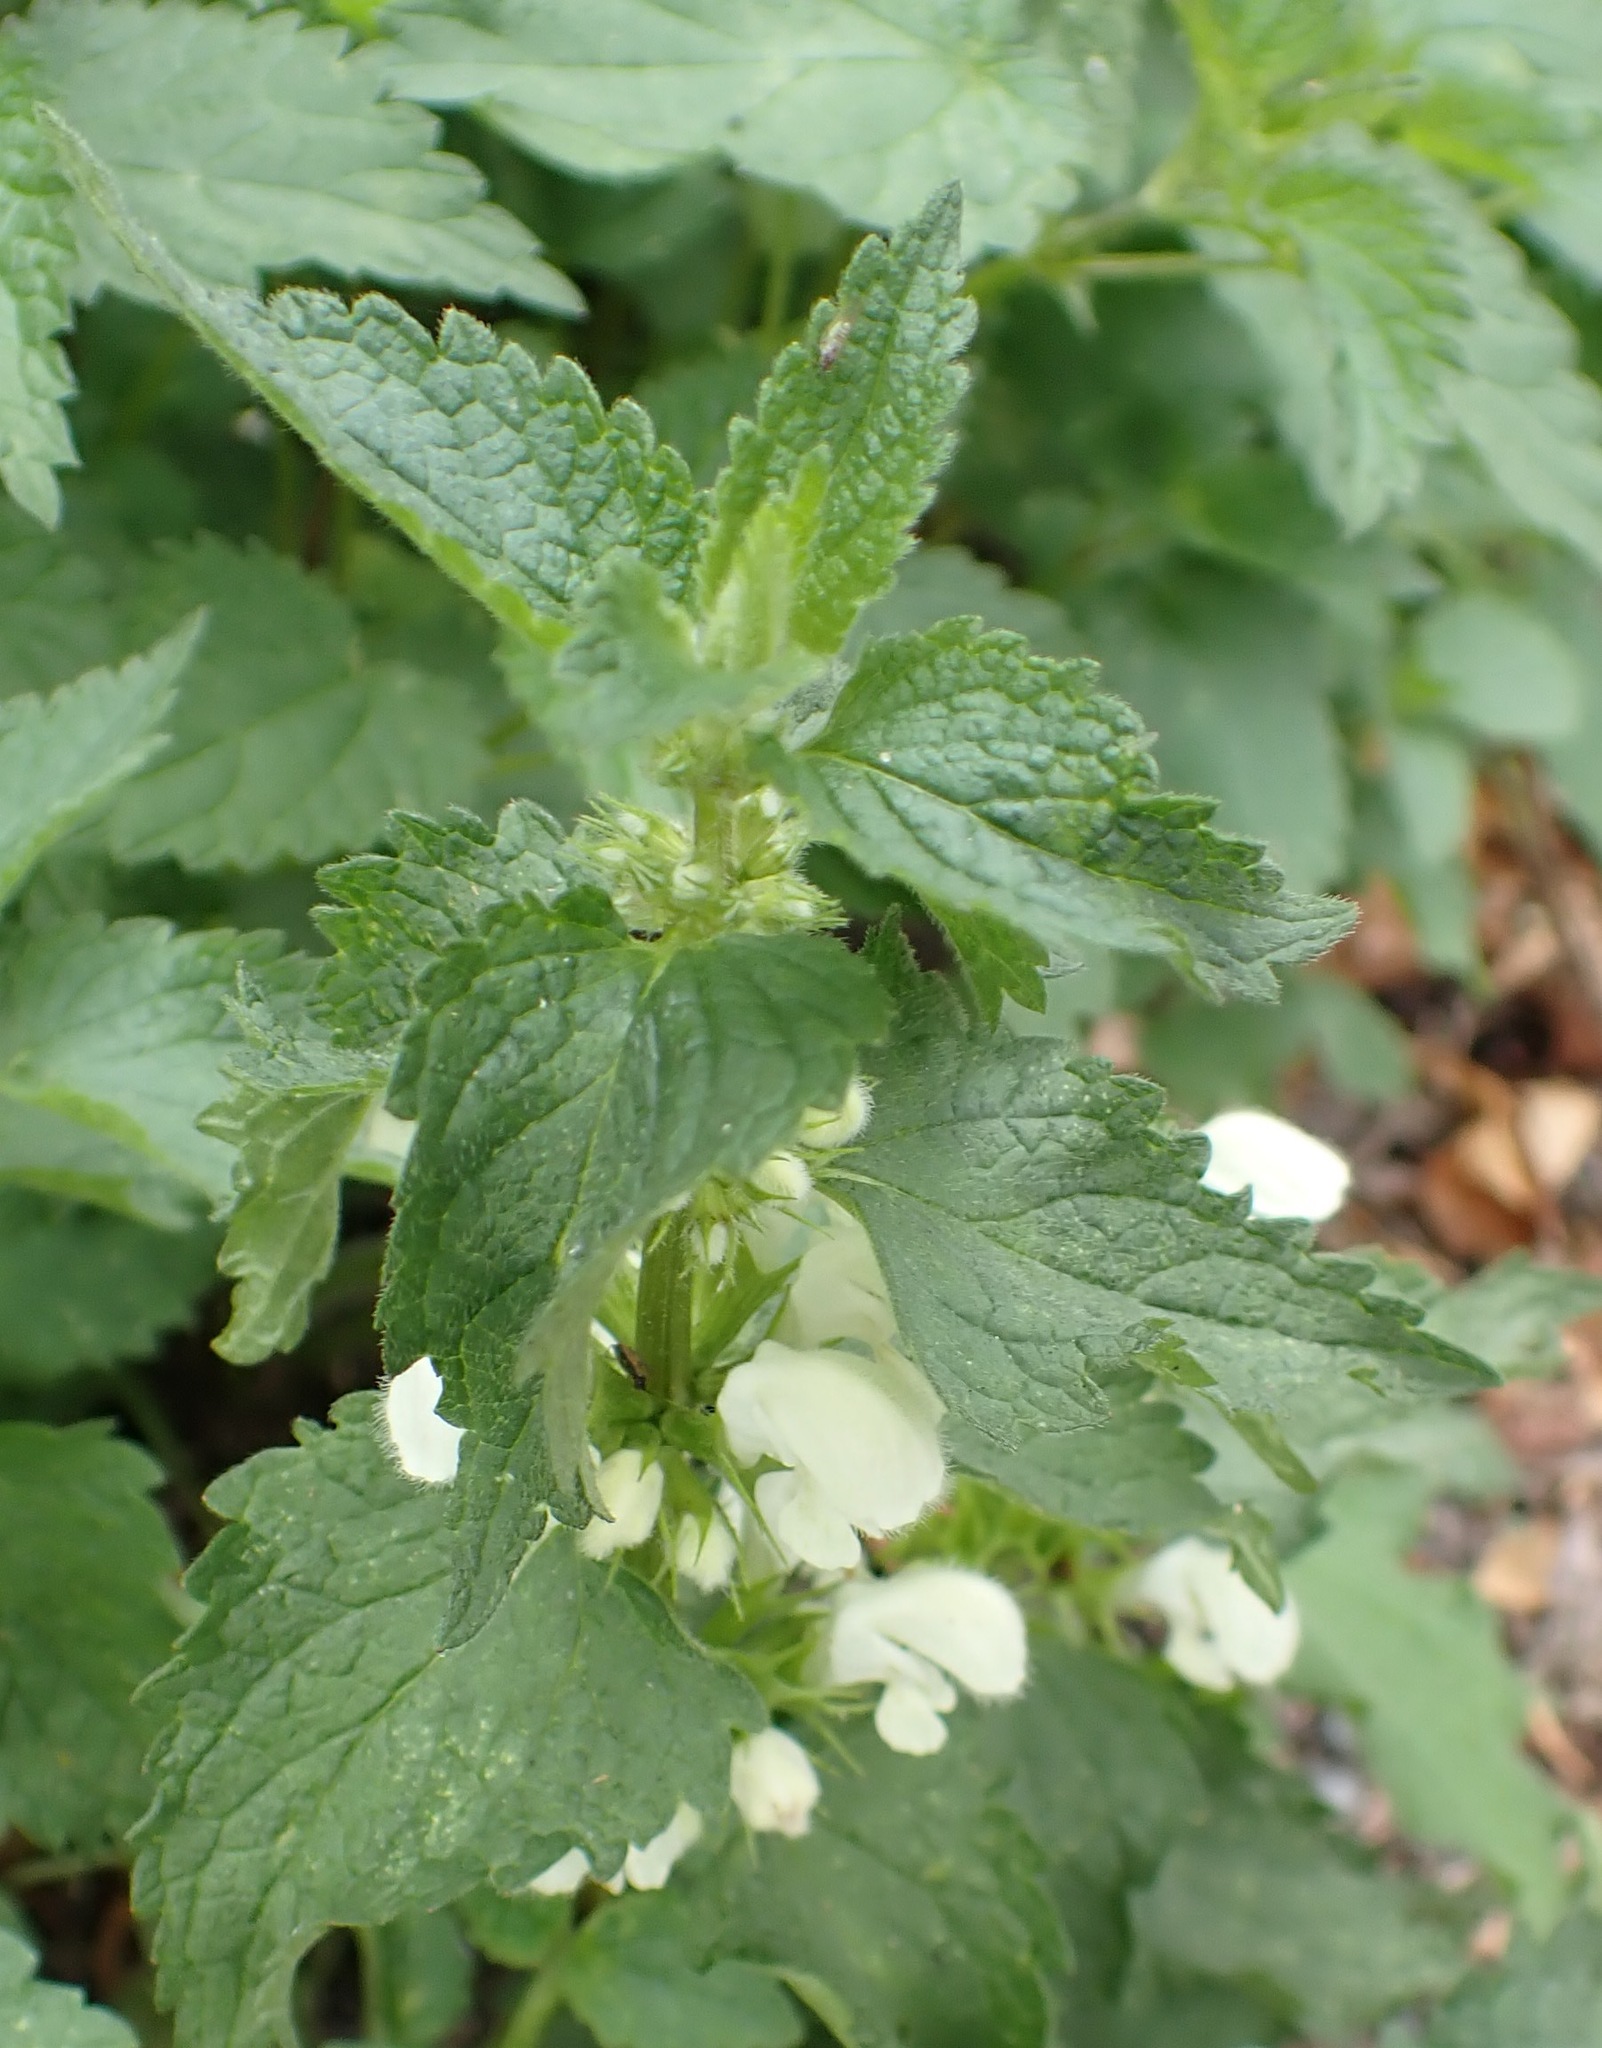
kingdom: Plantae
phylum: Tracheophyta
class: Magnoliopsida
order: Lamiales
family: Lamiaceae
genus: Lamium
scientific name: Lamium album
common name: White dead-nettle
